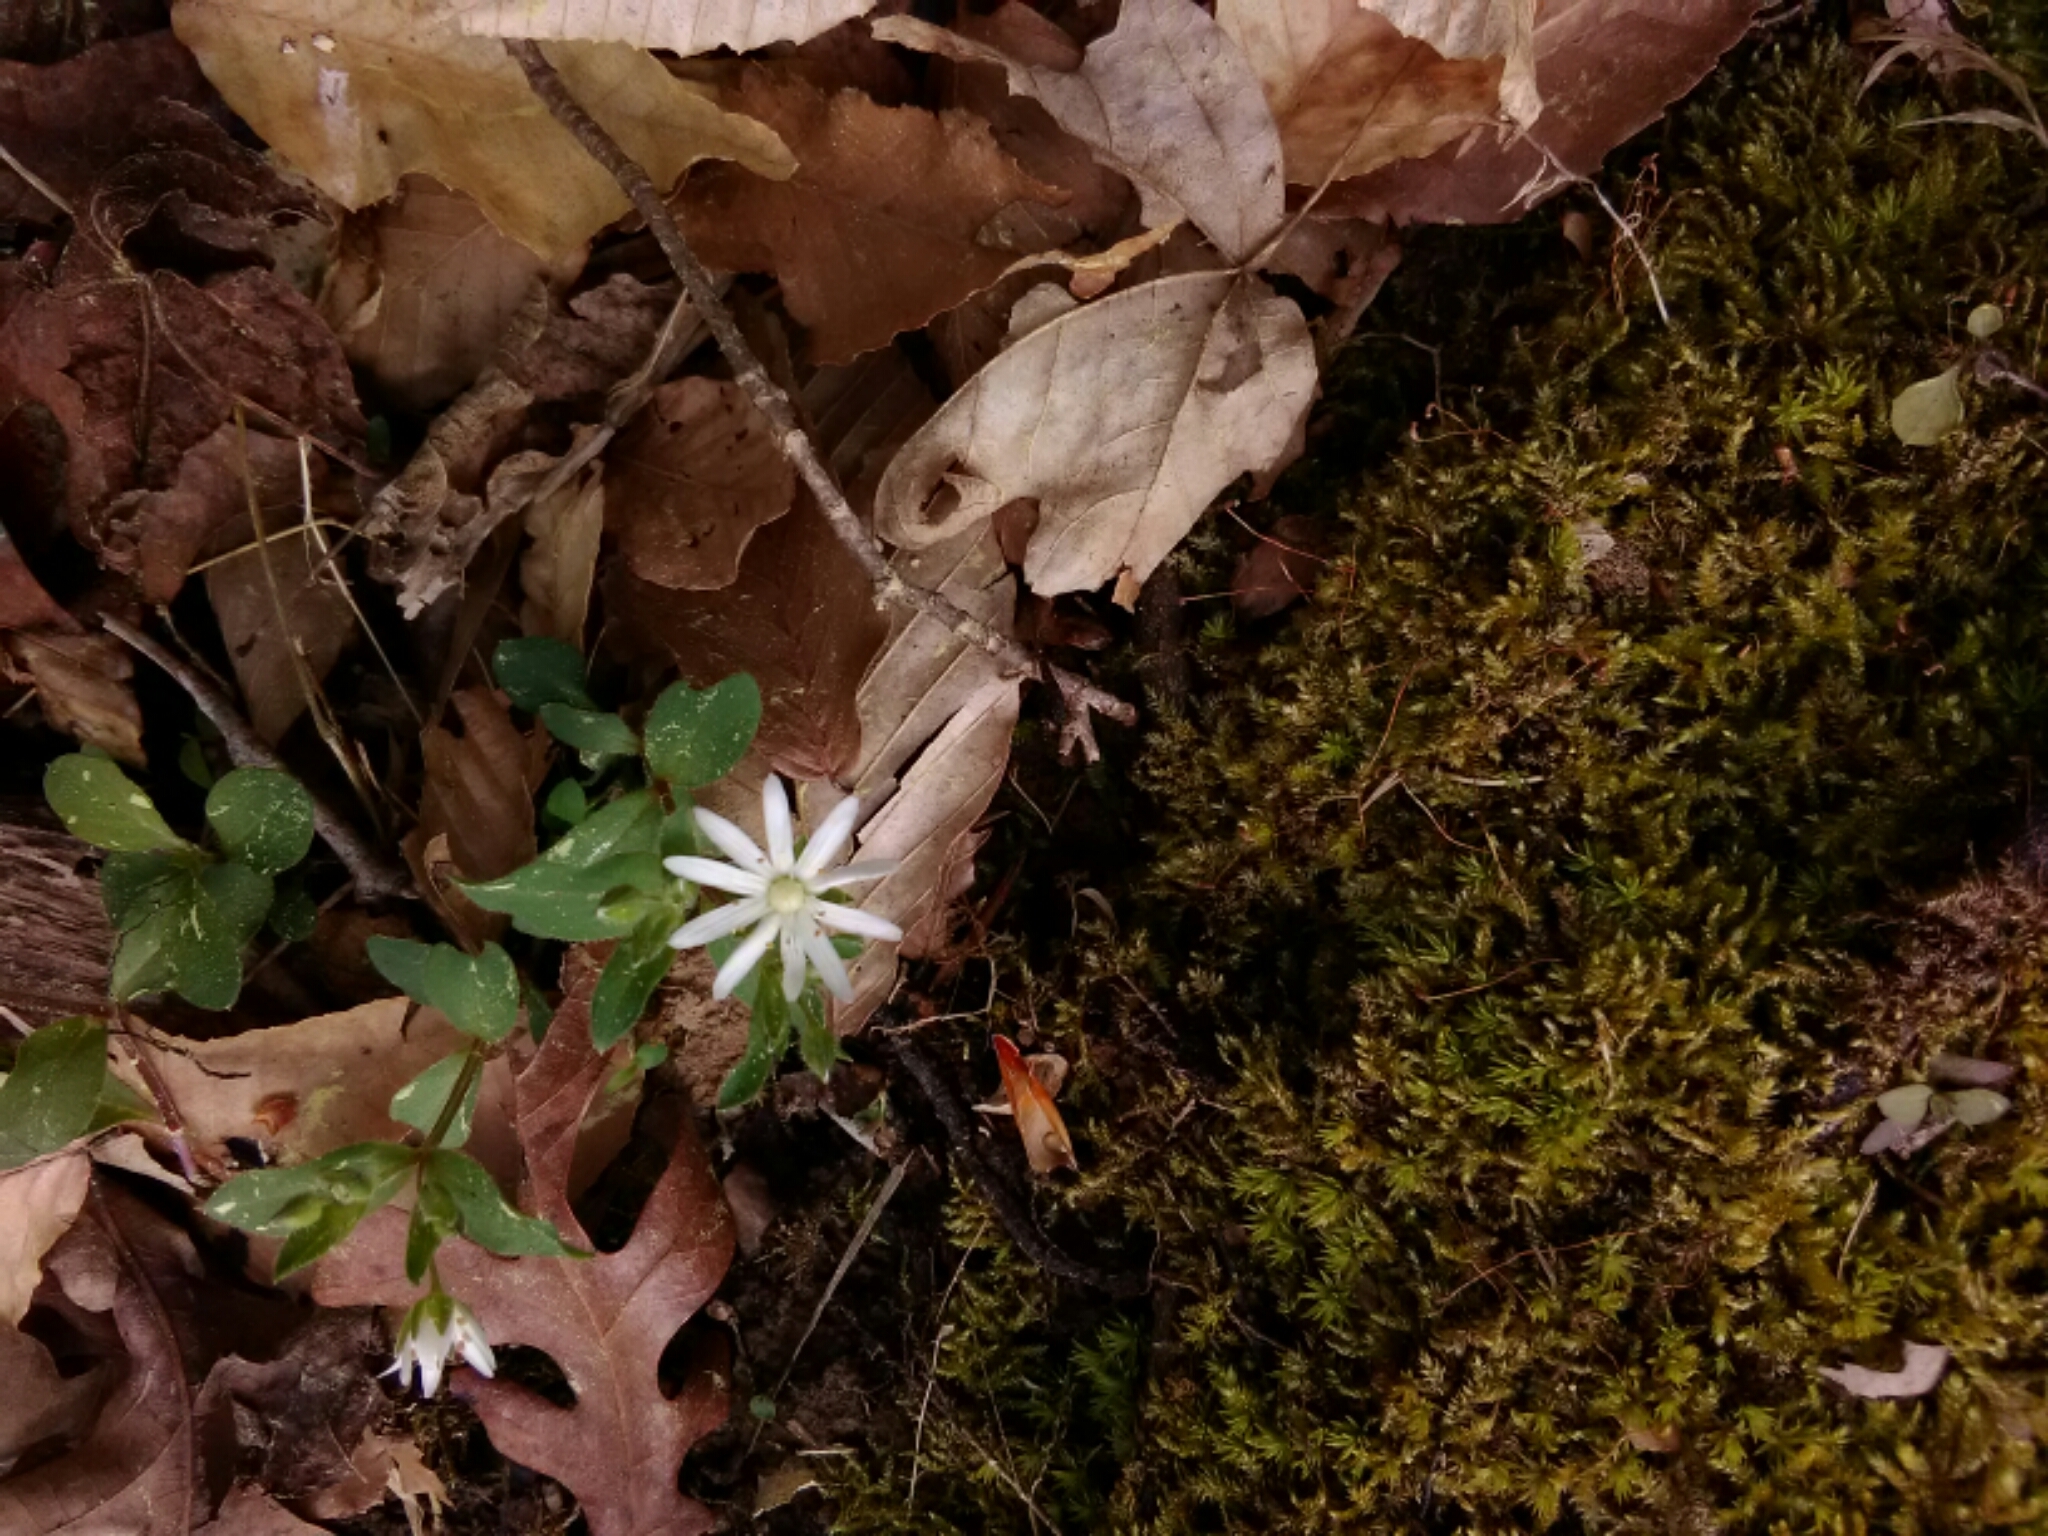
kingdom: Plantae
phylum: Tracheophyta
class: Magnoliopsida
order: Caryophyllales
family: Caryophyllaceae
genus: Stellaria
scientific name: Stellaria pubera
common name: Star chickweed
